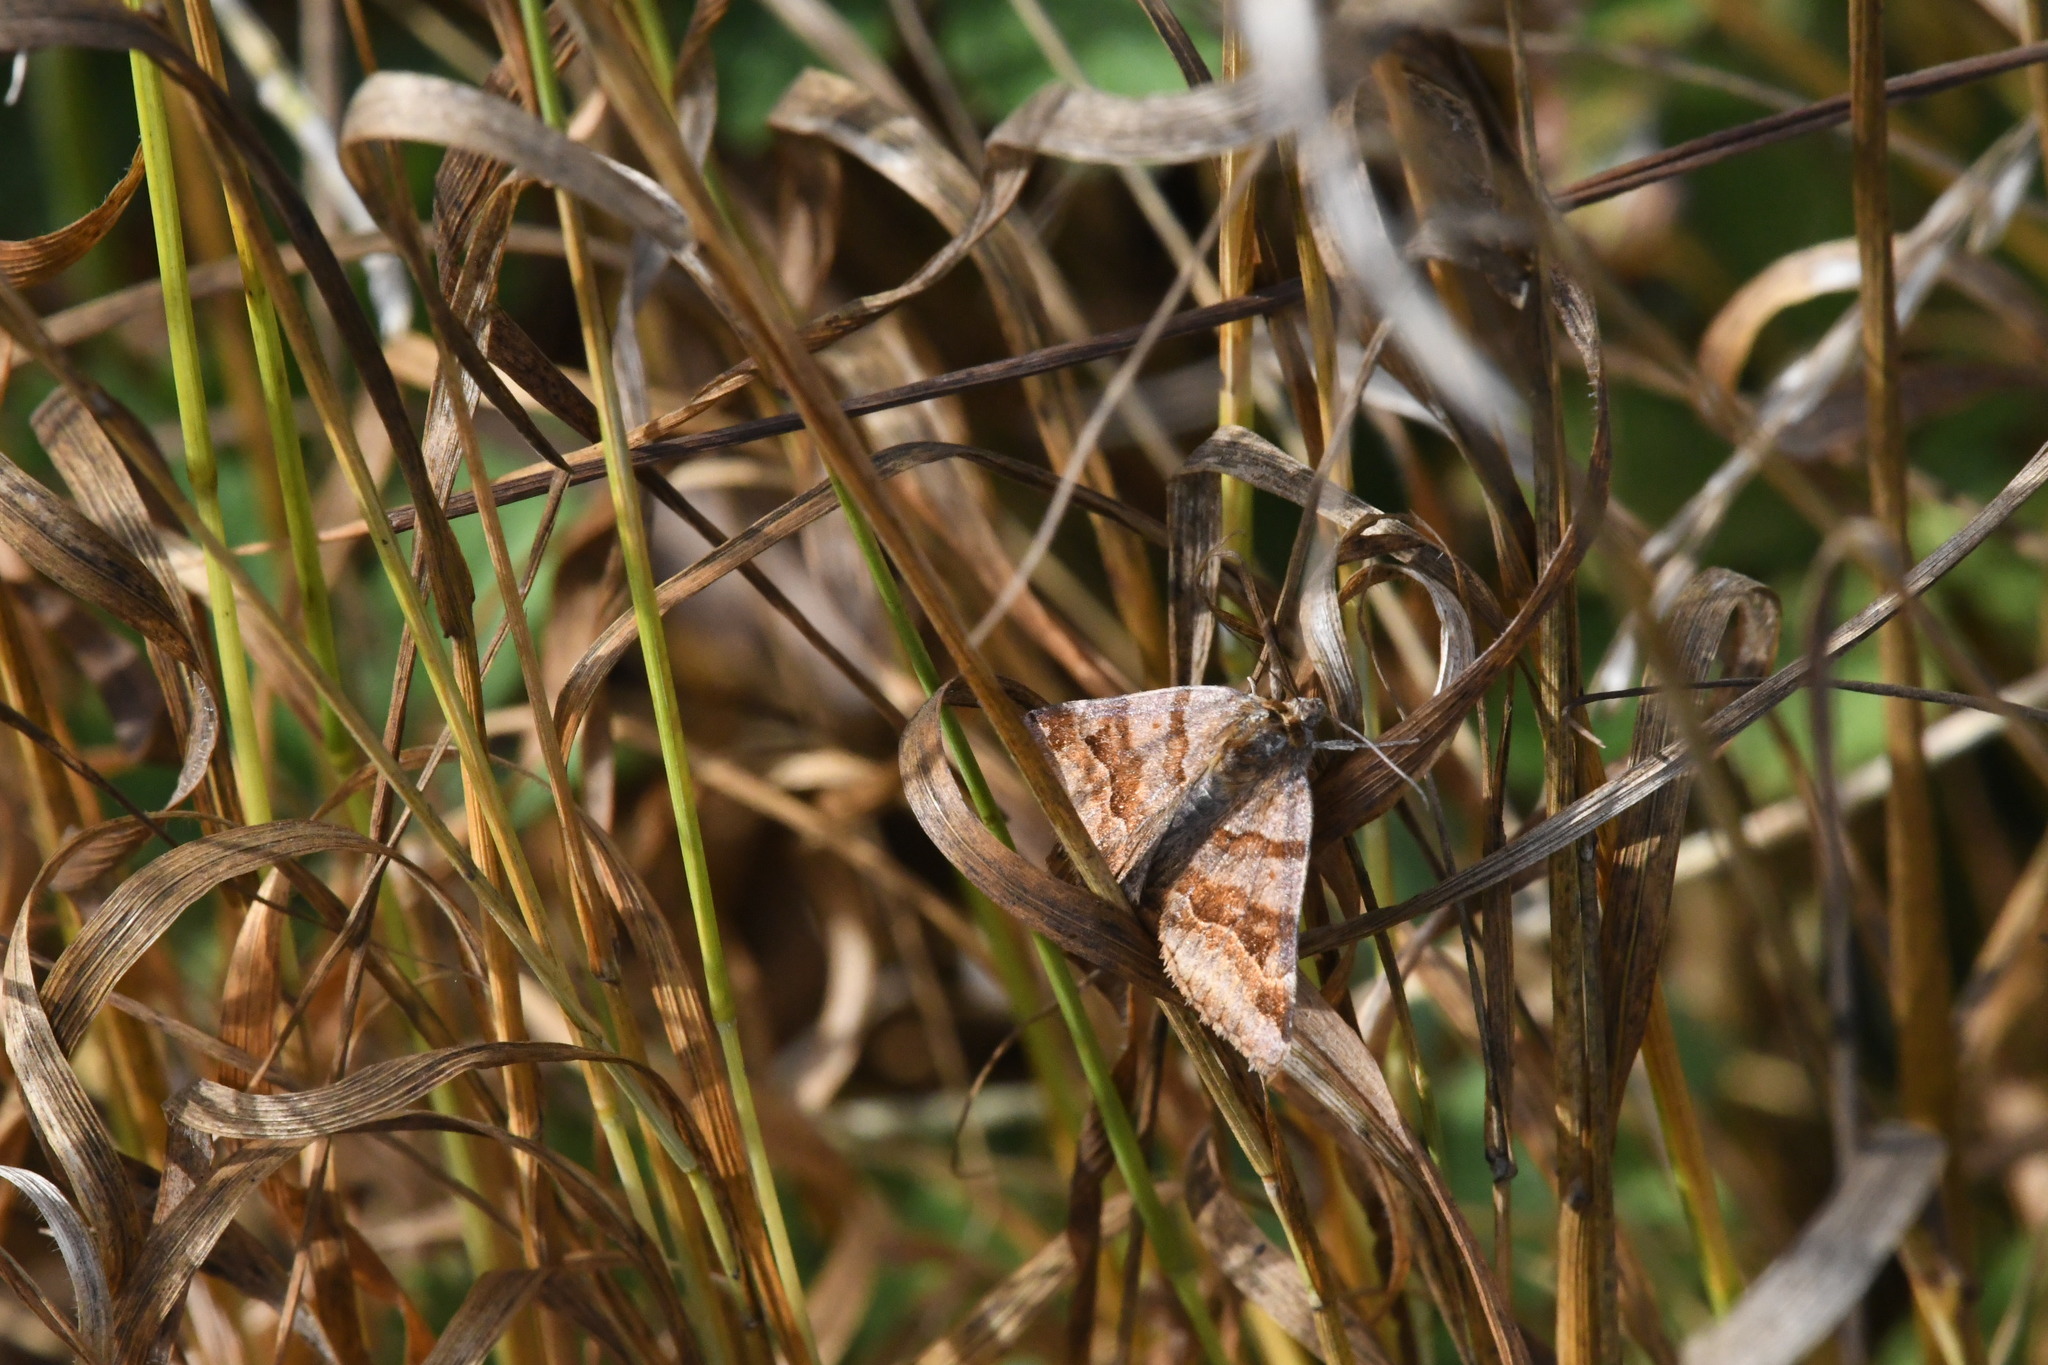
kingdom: Animalia
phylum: Arthropoda
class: Insecta
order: Lepidoptera
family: Erebidae
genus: Euclidia
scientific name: Euclidia glyphica
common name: Burnet companion
